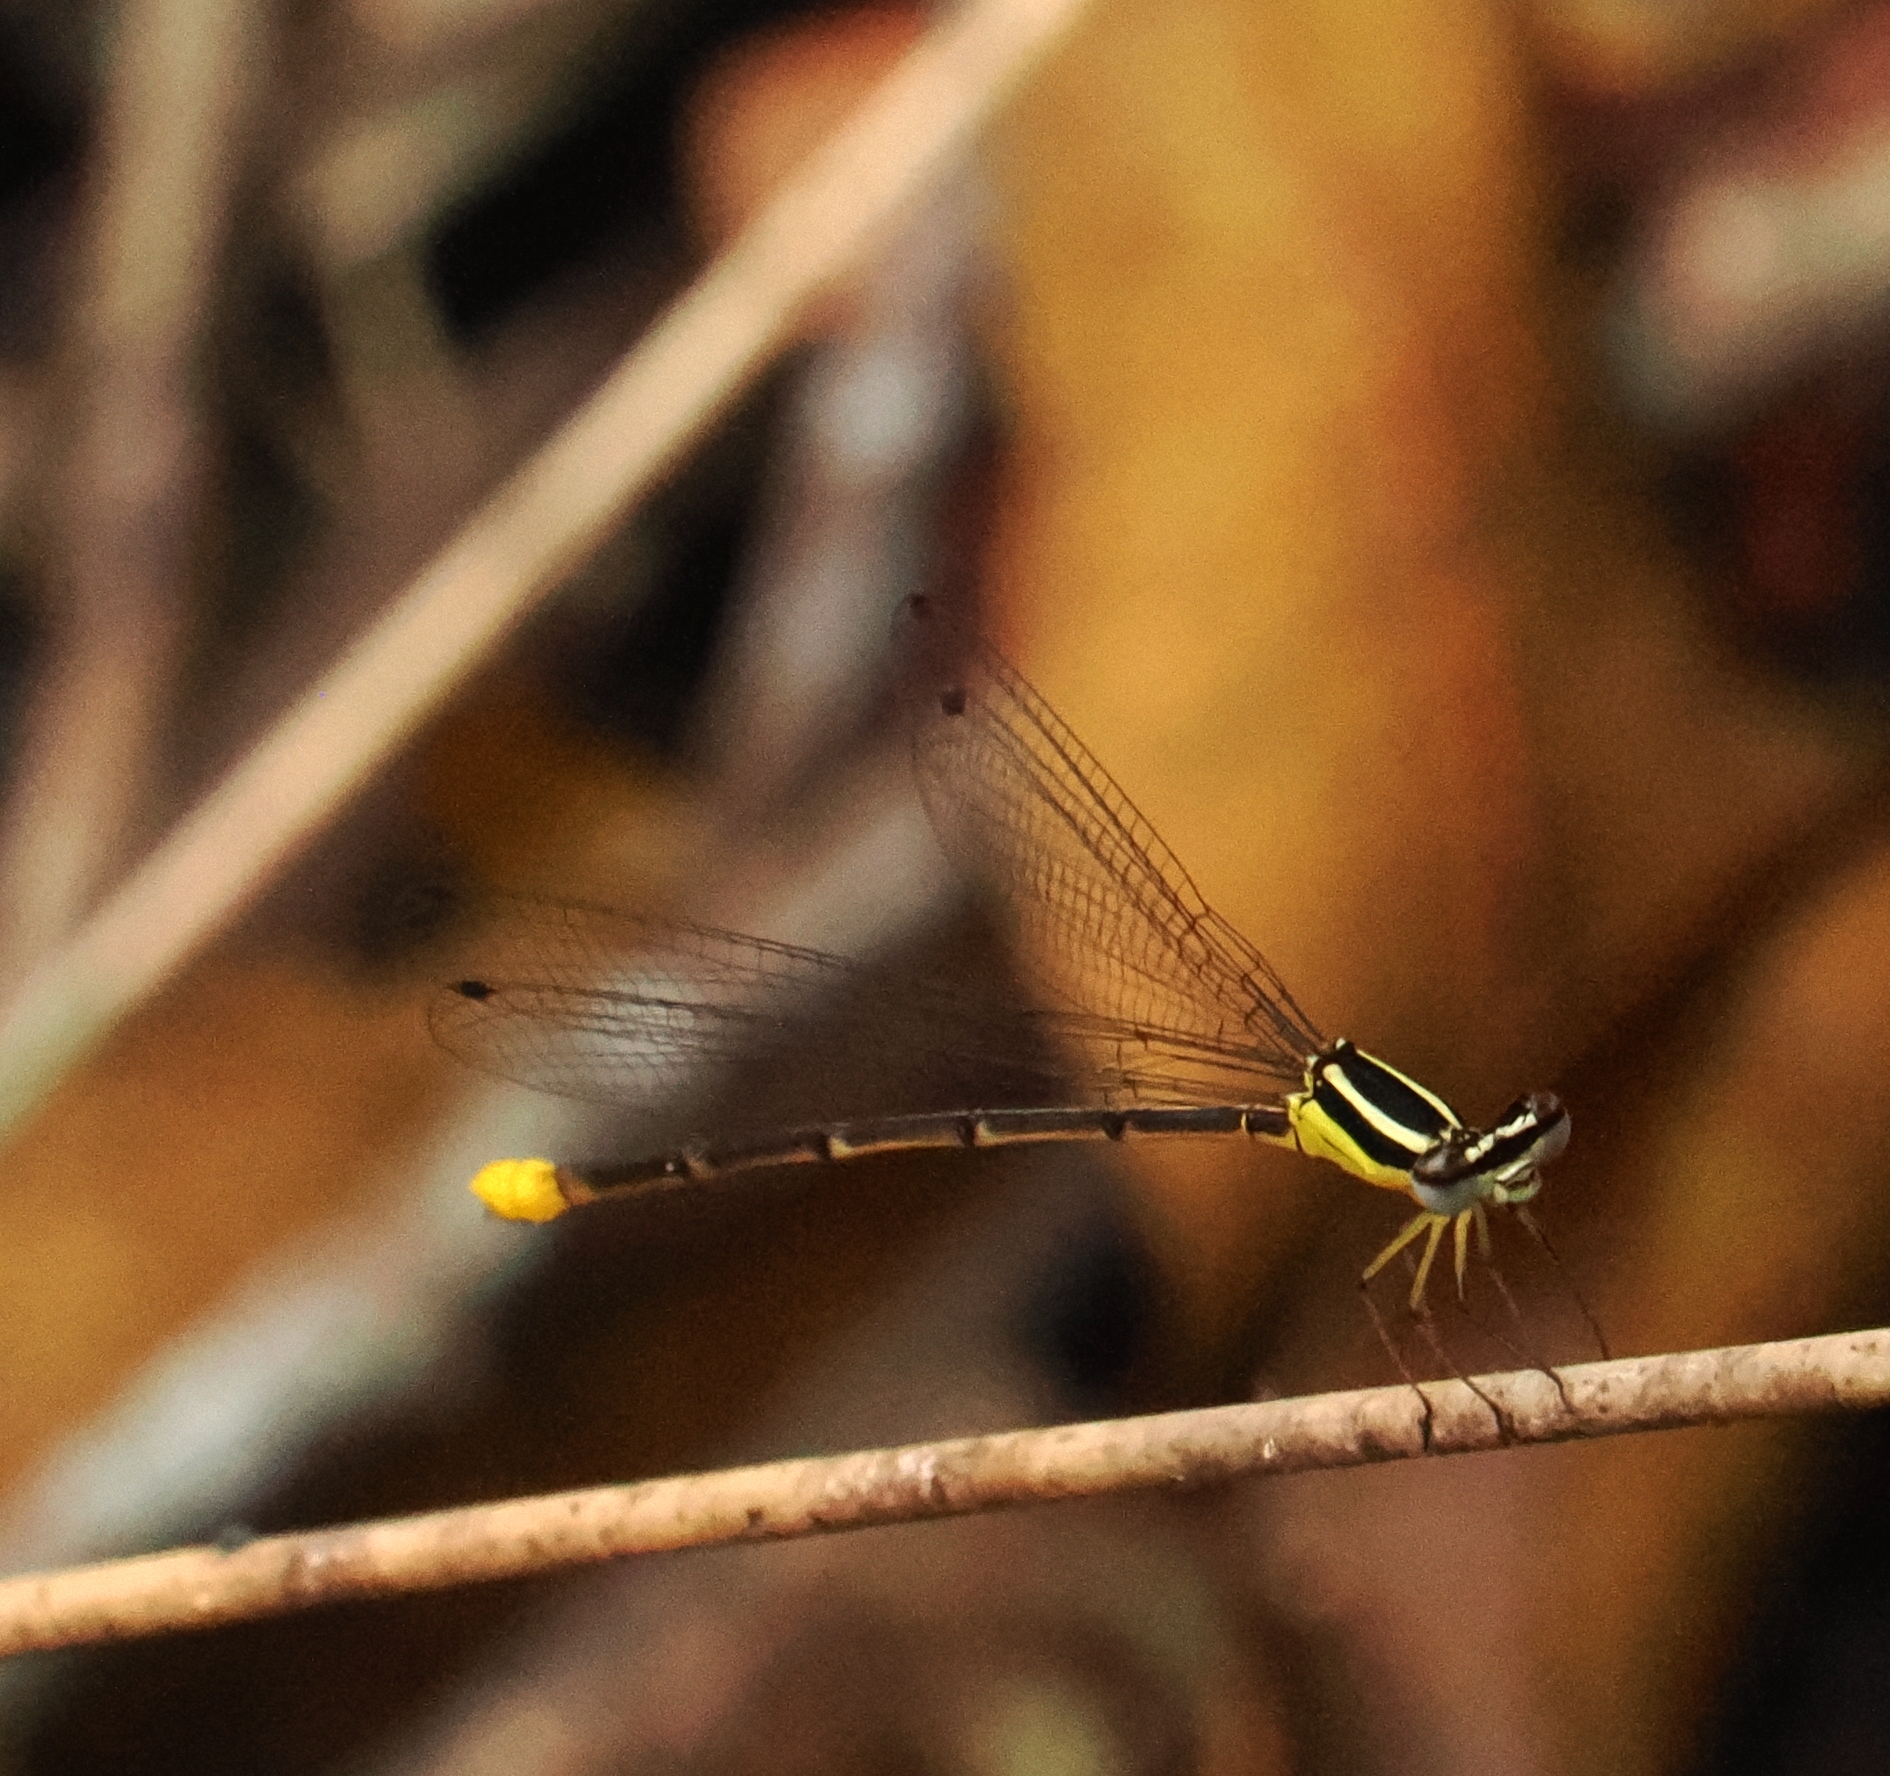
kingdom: Animalia
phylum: Arthropoda
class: Insecta
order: Odonata
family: Platycnemididae
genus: Coeliccia
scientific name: Coeliccia poungyi
